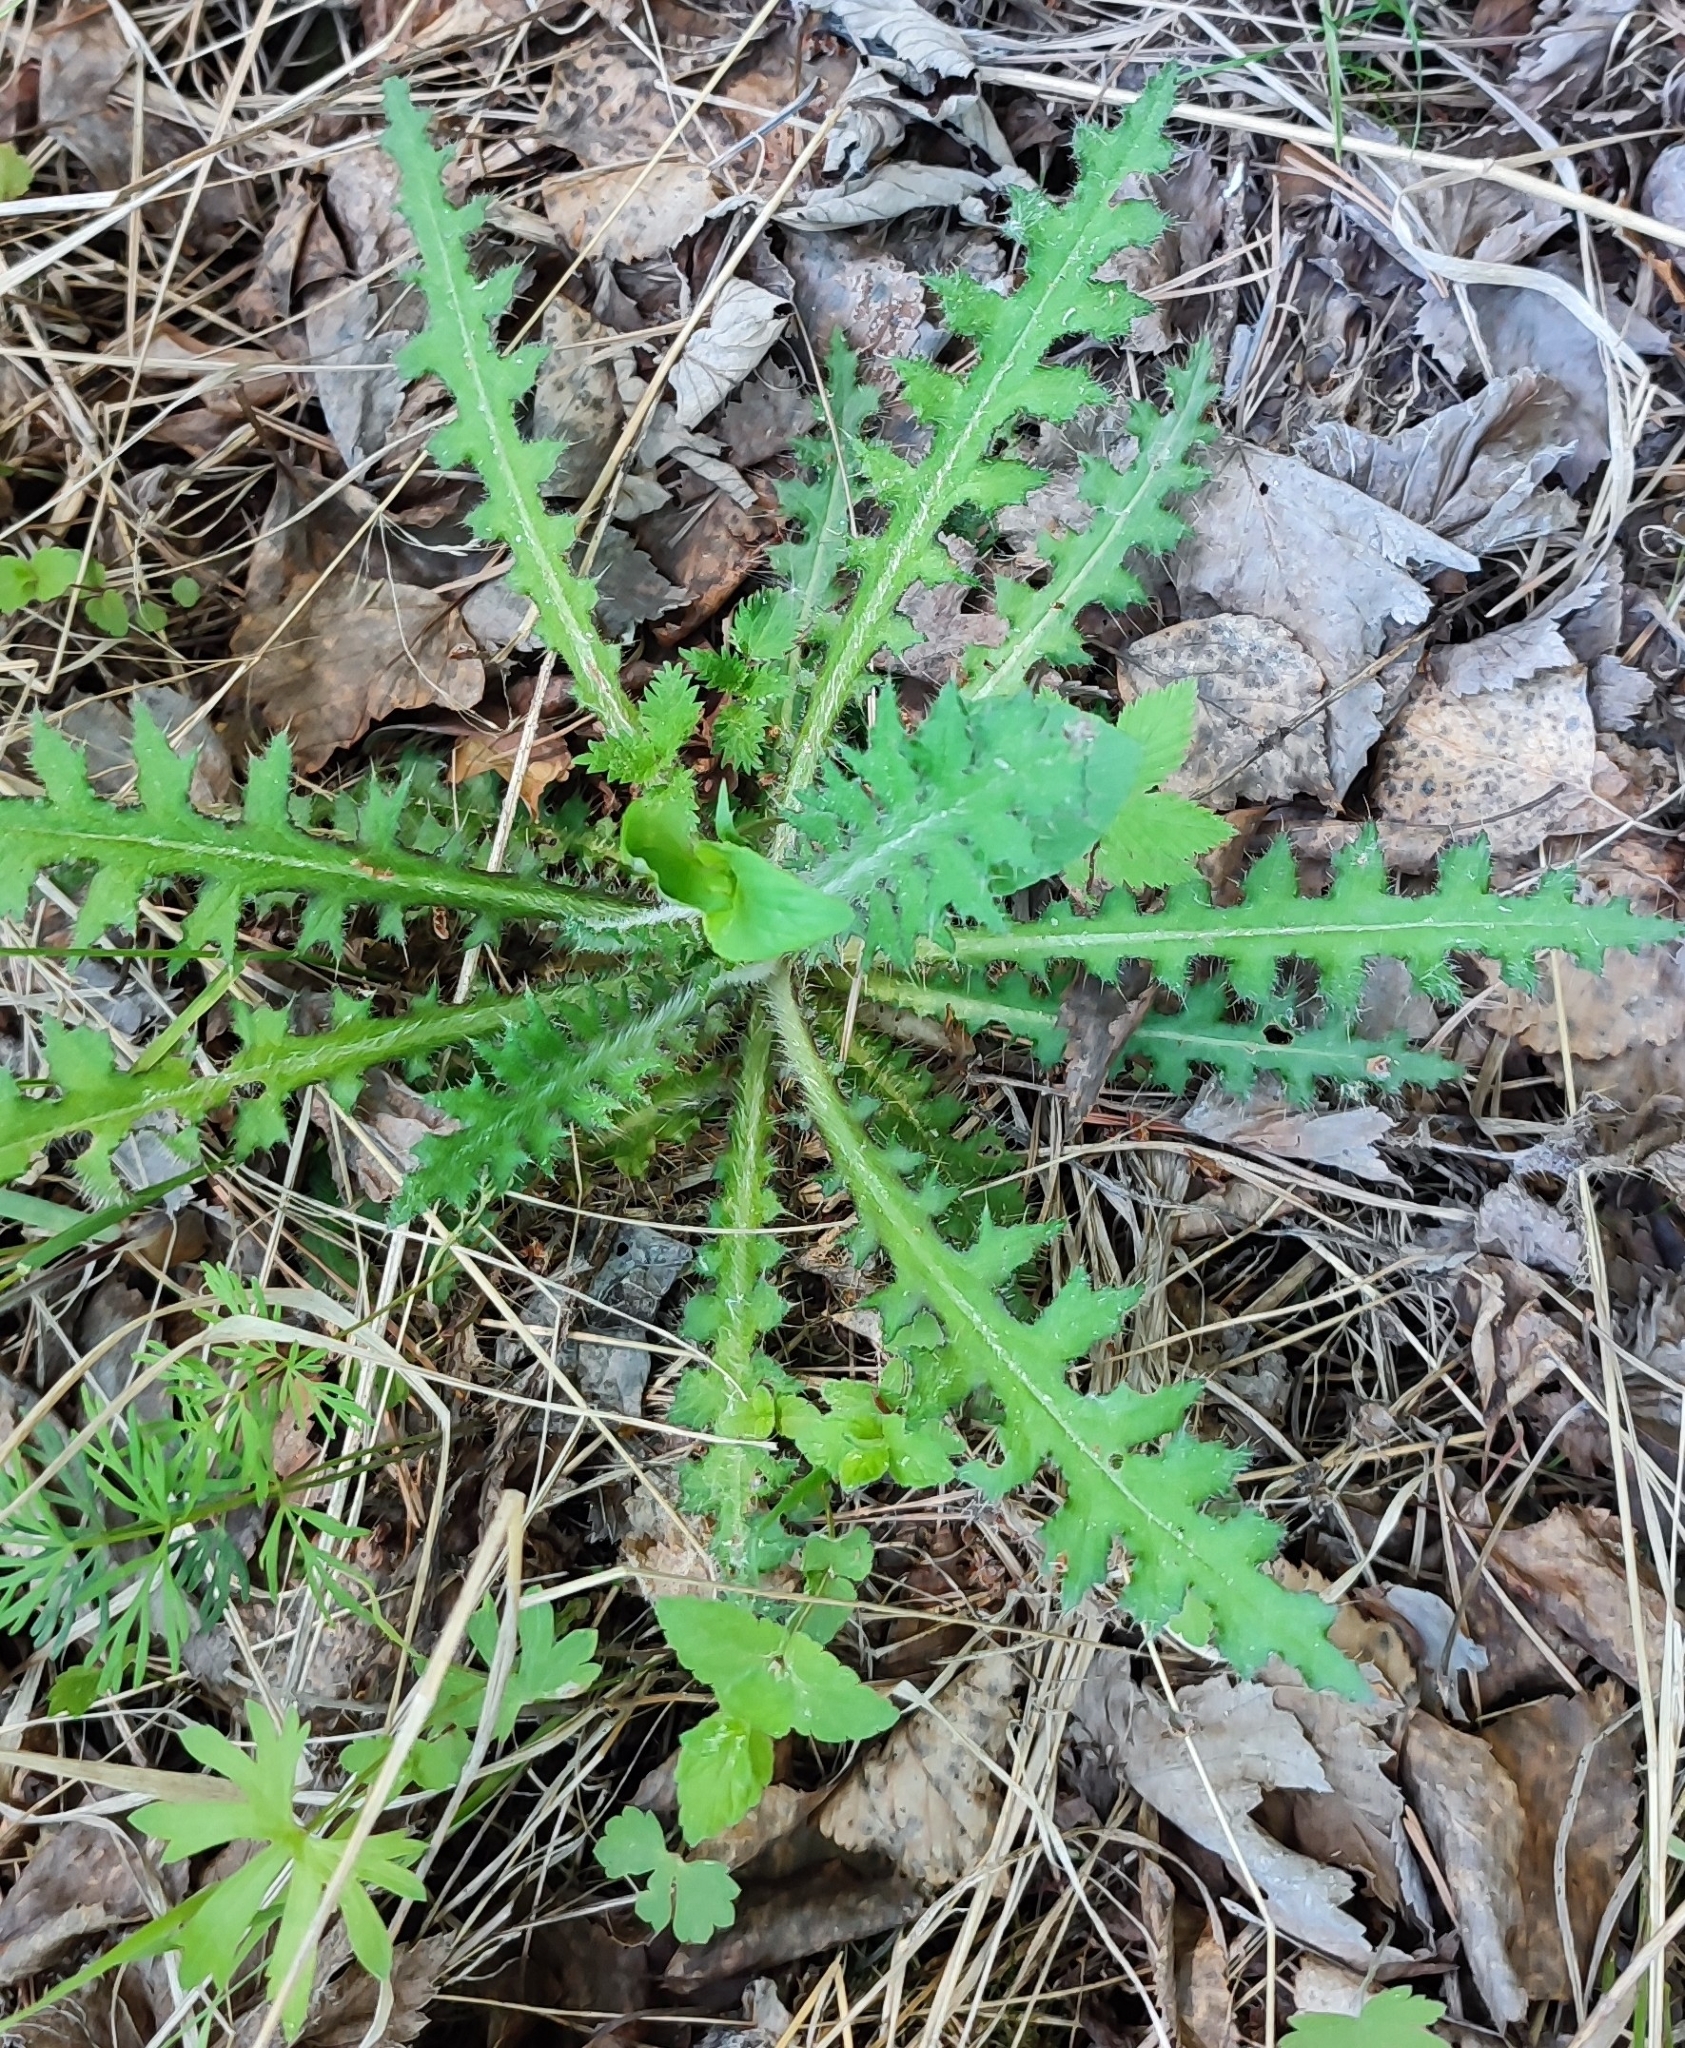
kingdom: Plantae
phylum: Tracheophyta
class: Magnoliopsida
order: Asterales
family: Asteraceae
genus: Cirsium
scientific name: Cirsium palustre
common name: Marsh thistle
